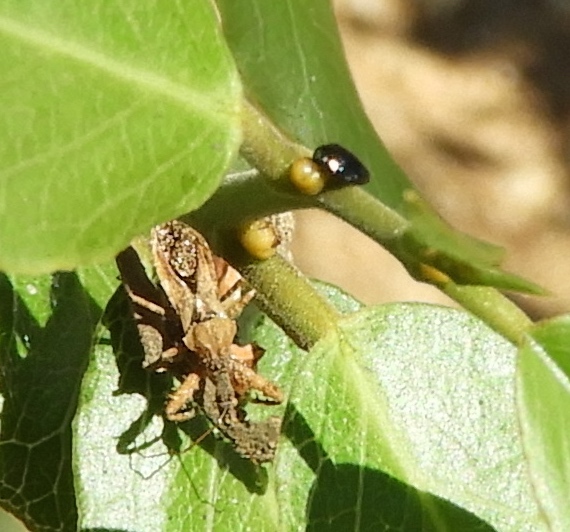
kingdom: Animalia
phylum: Arthropoda
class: Insecta
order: Hemiptera
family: Reduviidae
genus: Sinea
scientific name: Sinea spinipes
